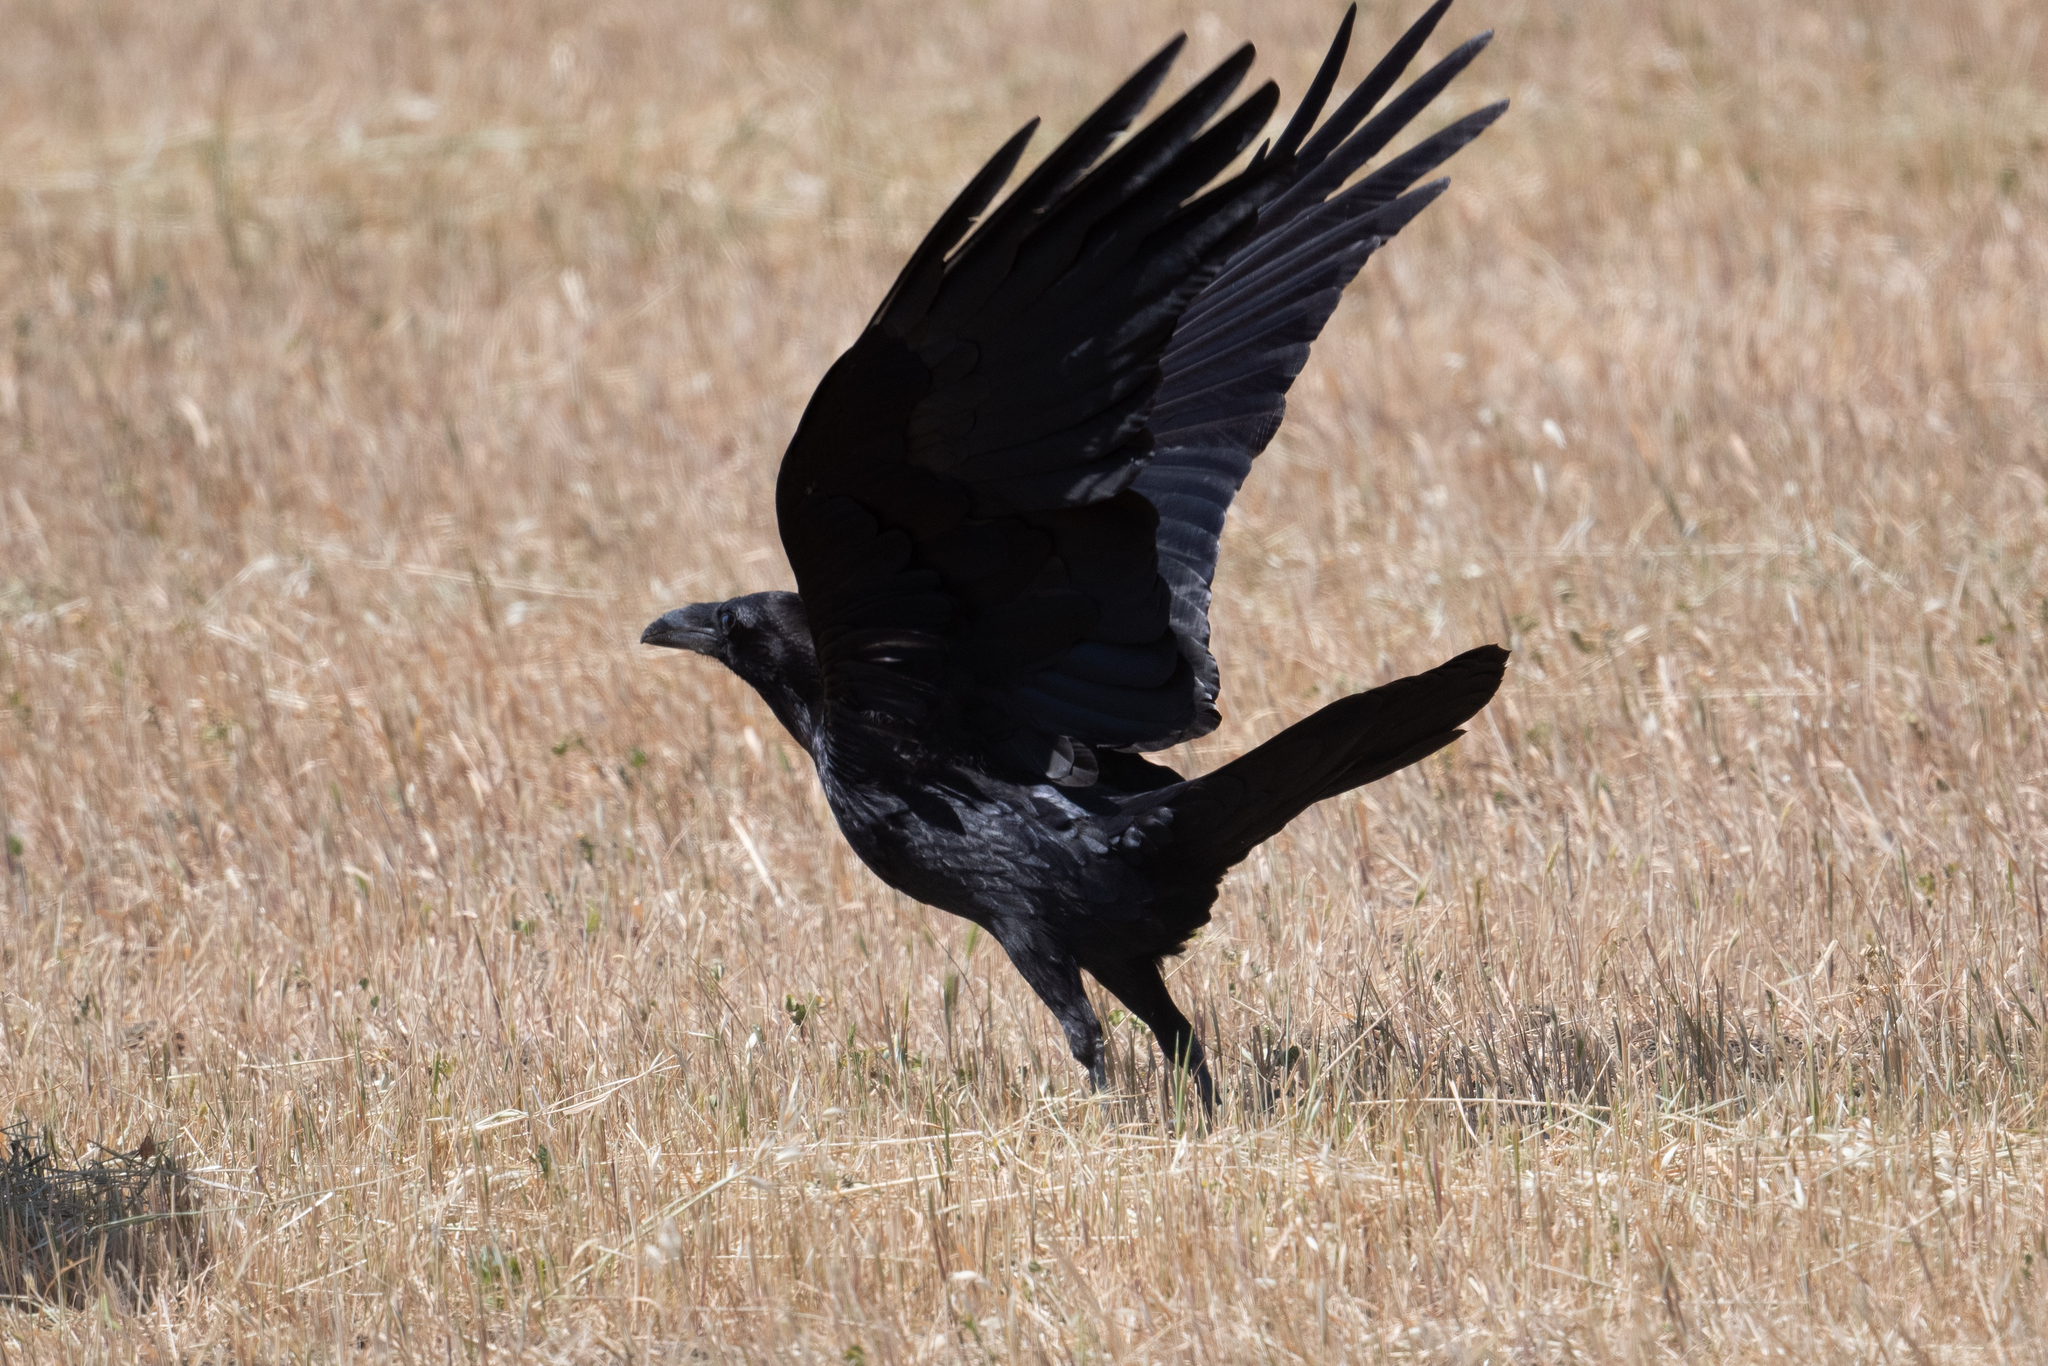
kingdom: Animalia
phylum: Chordata
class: Aves
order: Passeriformes
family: Corvidae
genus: Corvus
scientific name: Corvus corax
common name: Common raven
